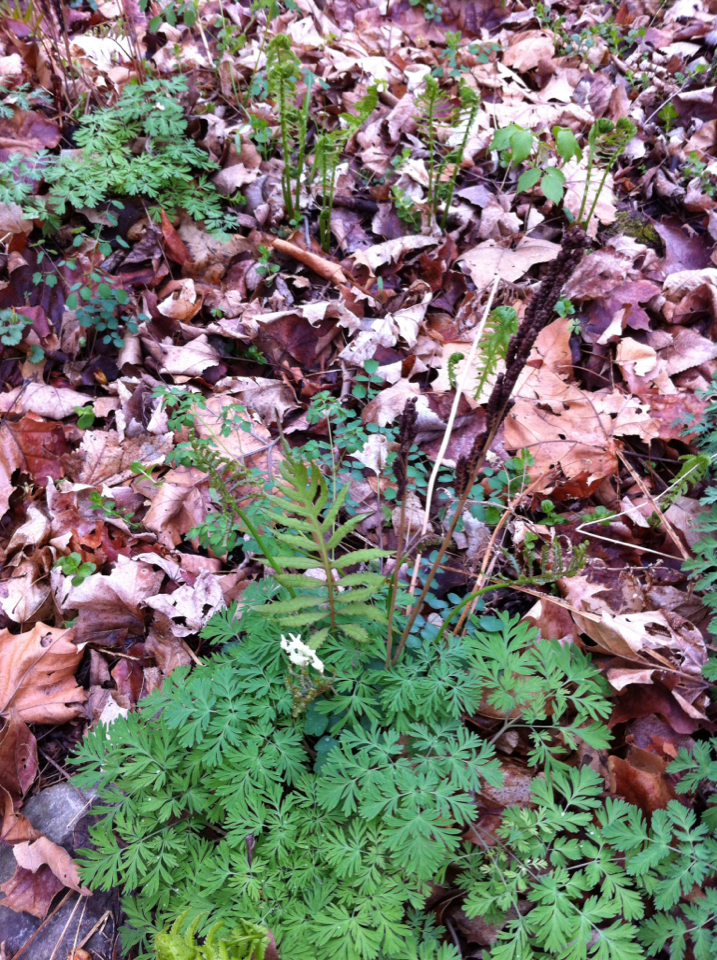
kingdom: Plantae
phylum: Tracheophyta
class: Polypodiopsida
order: Polypodiales
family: Onocleaceae
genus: Onoclea
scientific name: Onoclea sensibilis
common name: Sensitive fern
